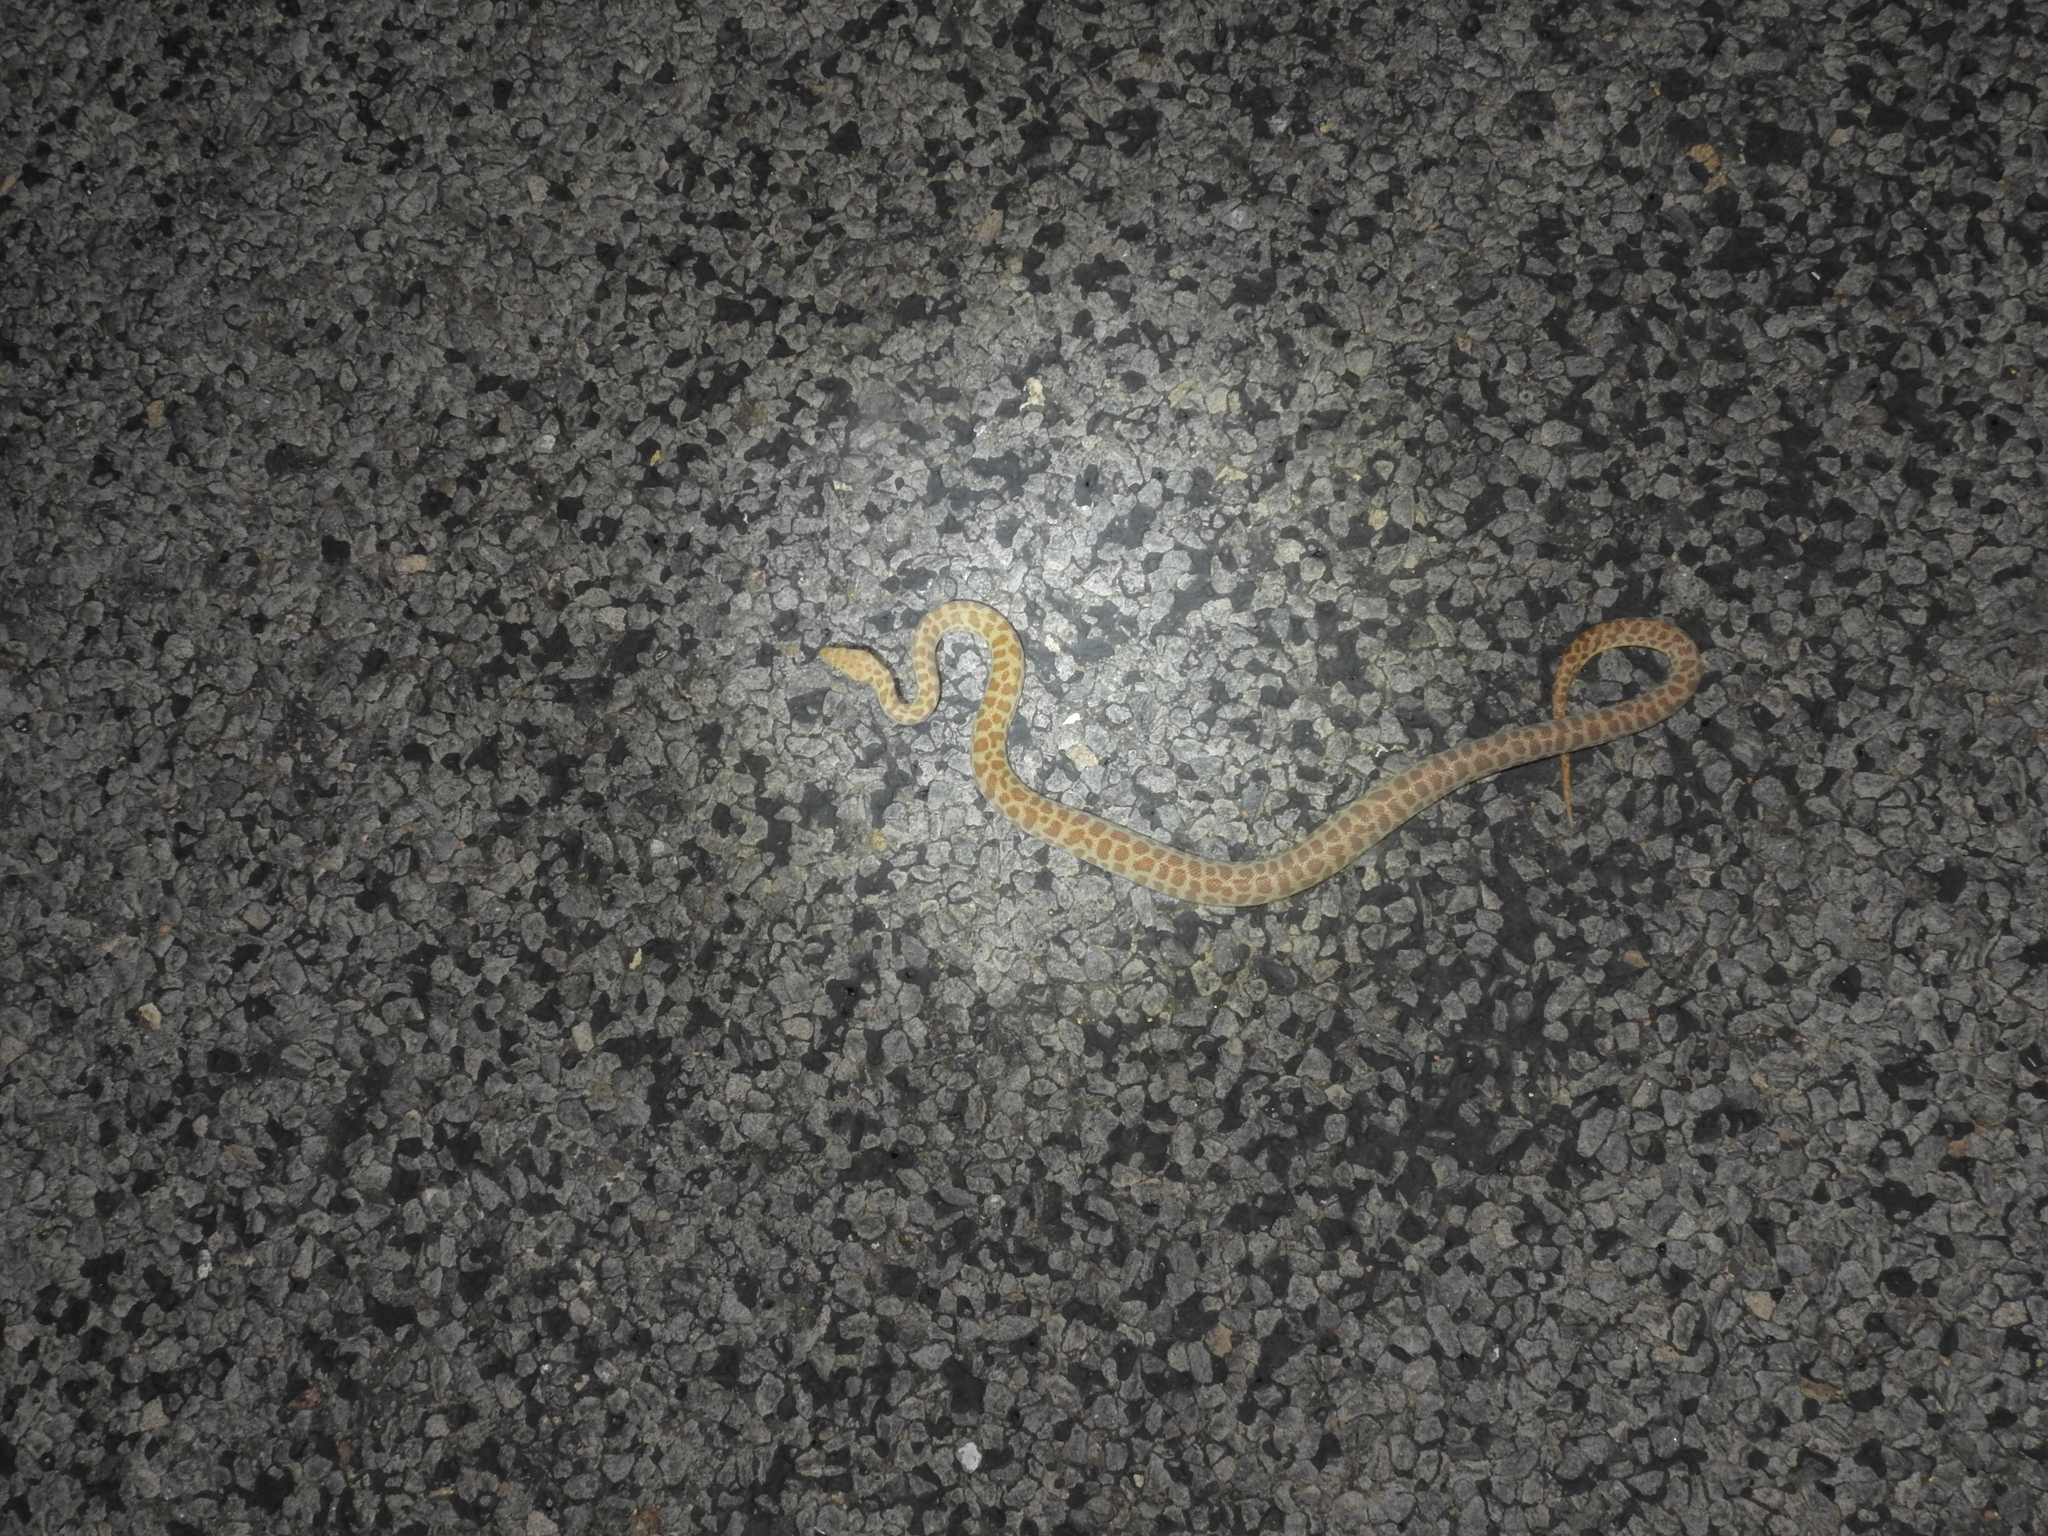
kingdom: Animalia
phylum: Chordata
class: Squamata
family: Pythonidae
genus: Antaresia
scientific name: Antaresia childreni
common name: Children's python
